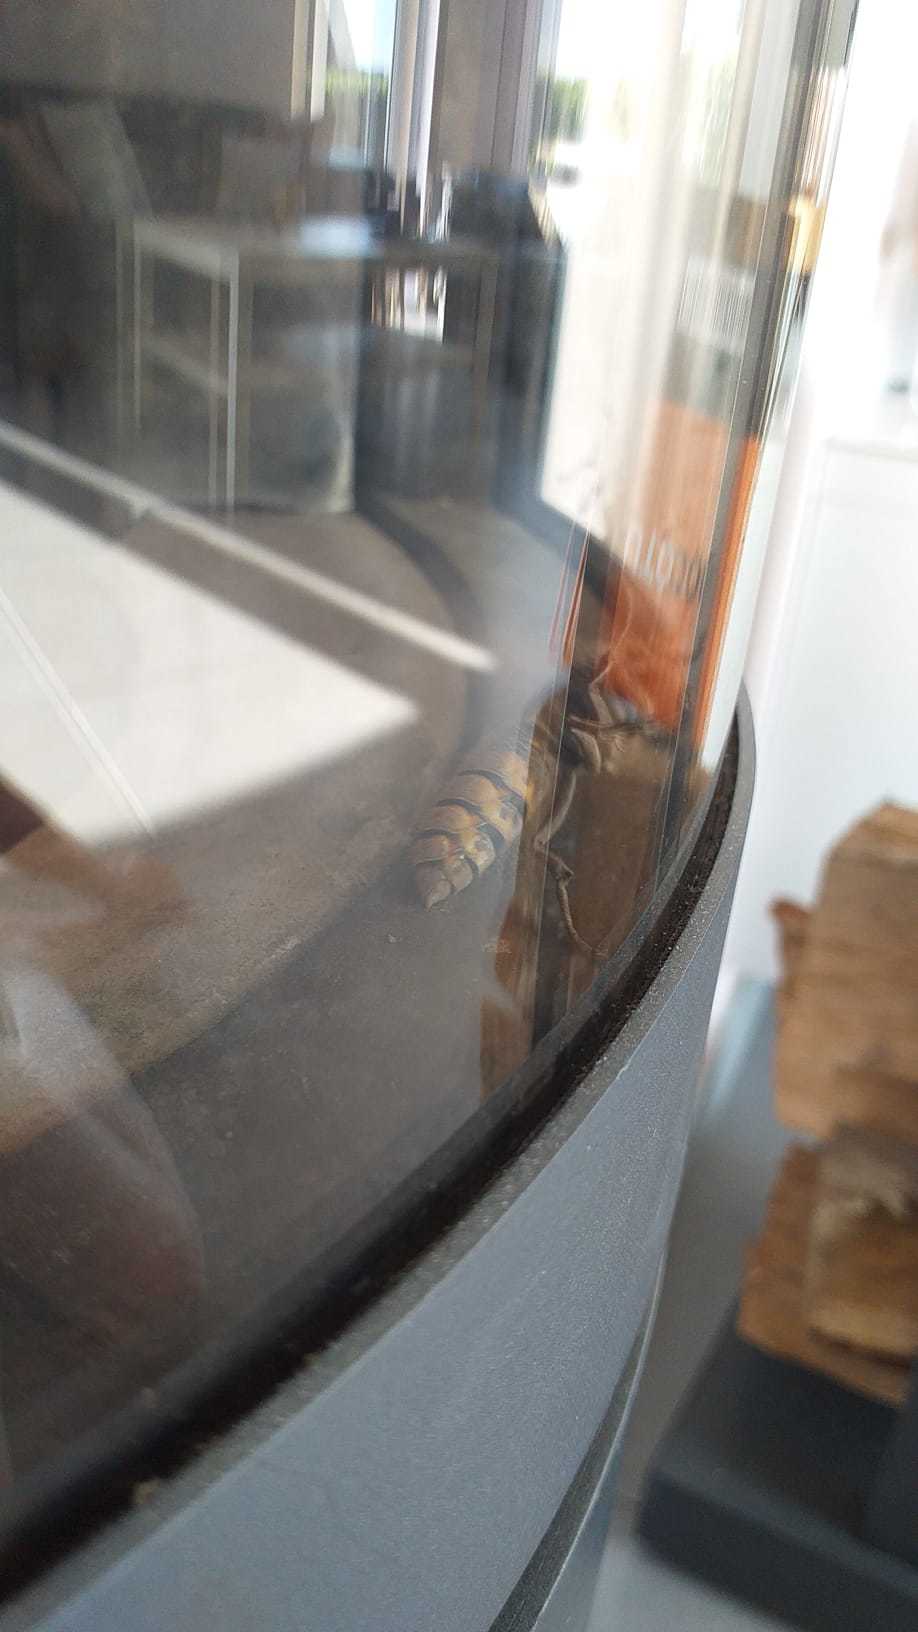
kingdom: Animalia
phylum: Arthropoda
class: Insecta
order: Hymenoptera
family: Vespidae
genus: Vespa
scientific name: Vespa crabro
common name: Hornet
